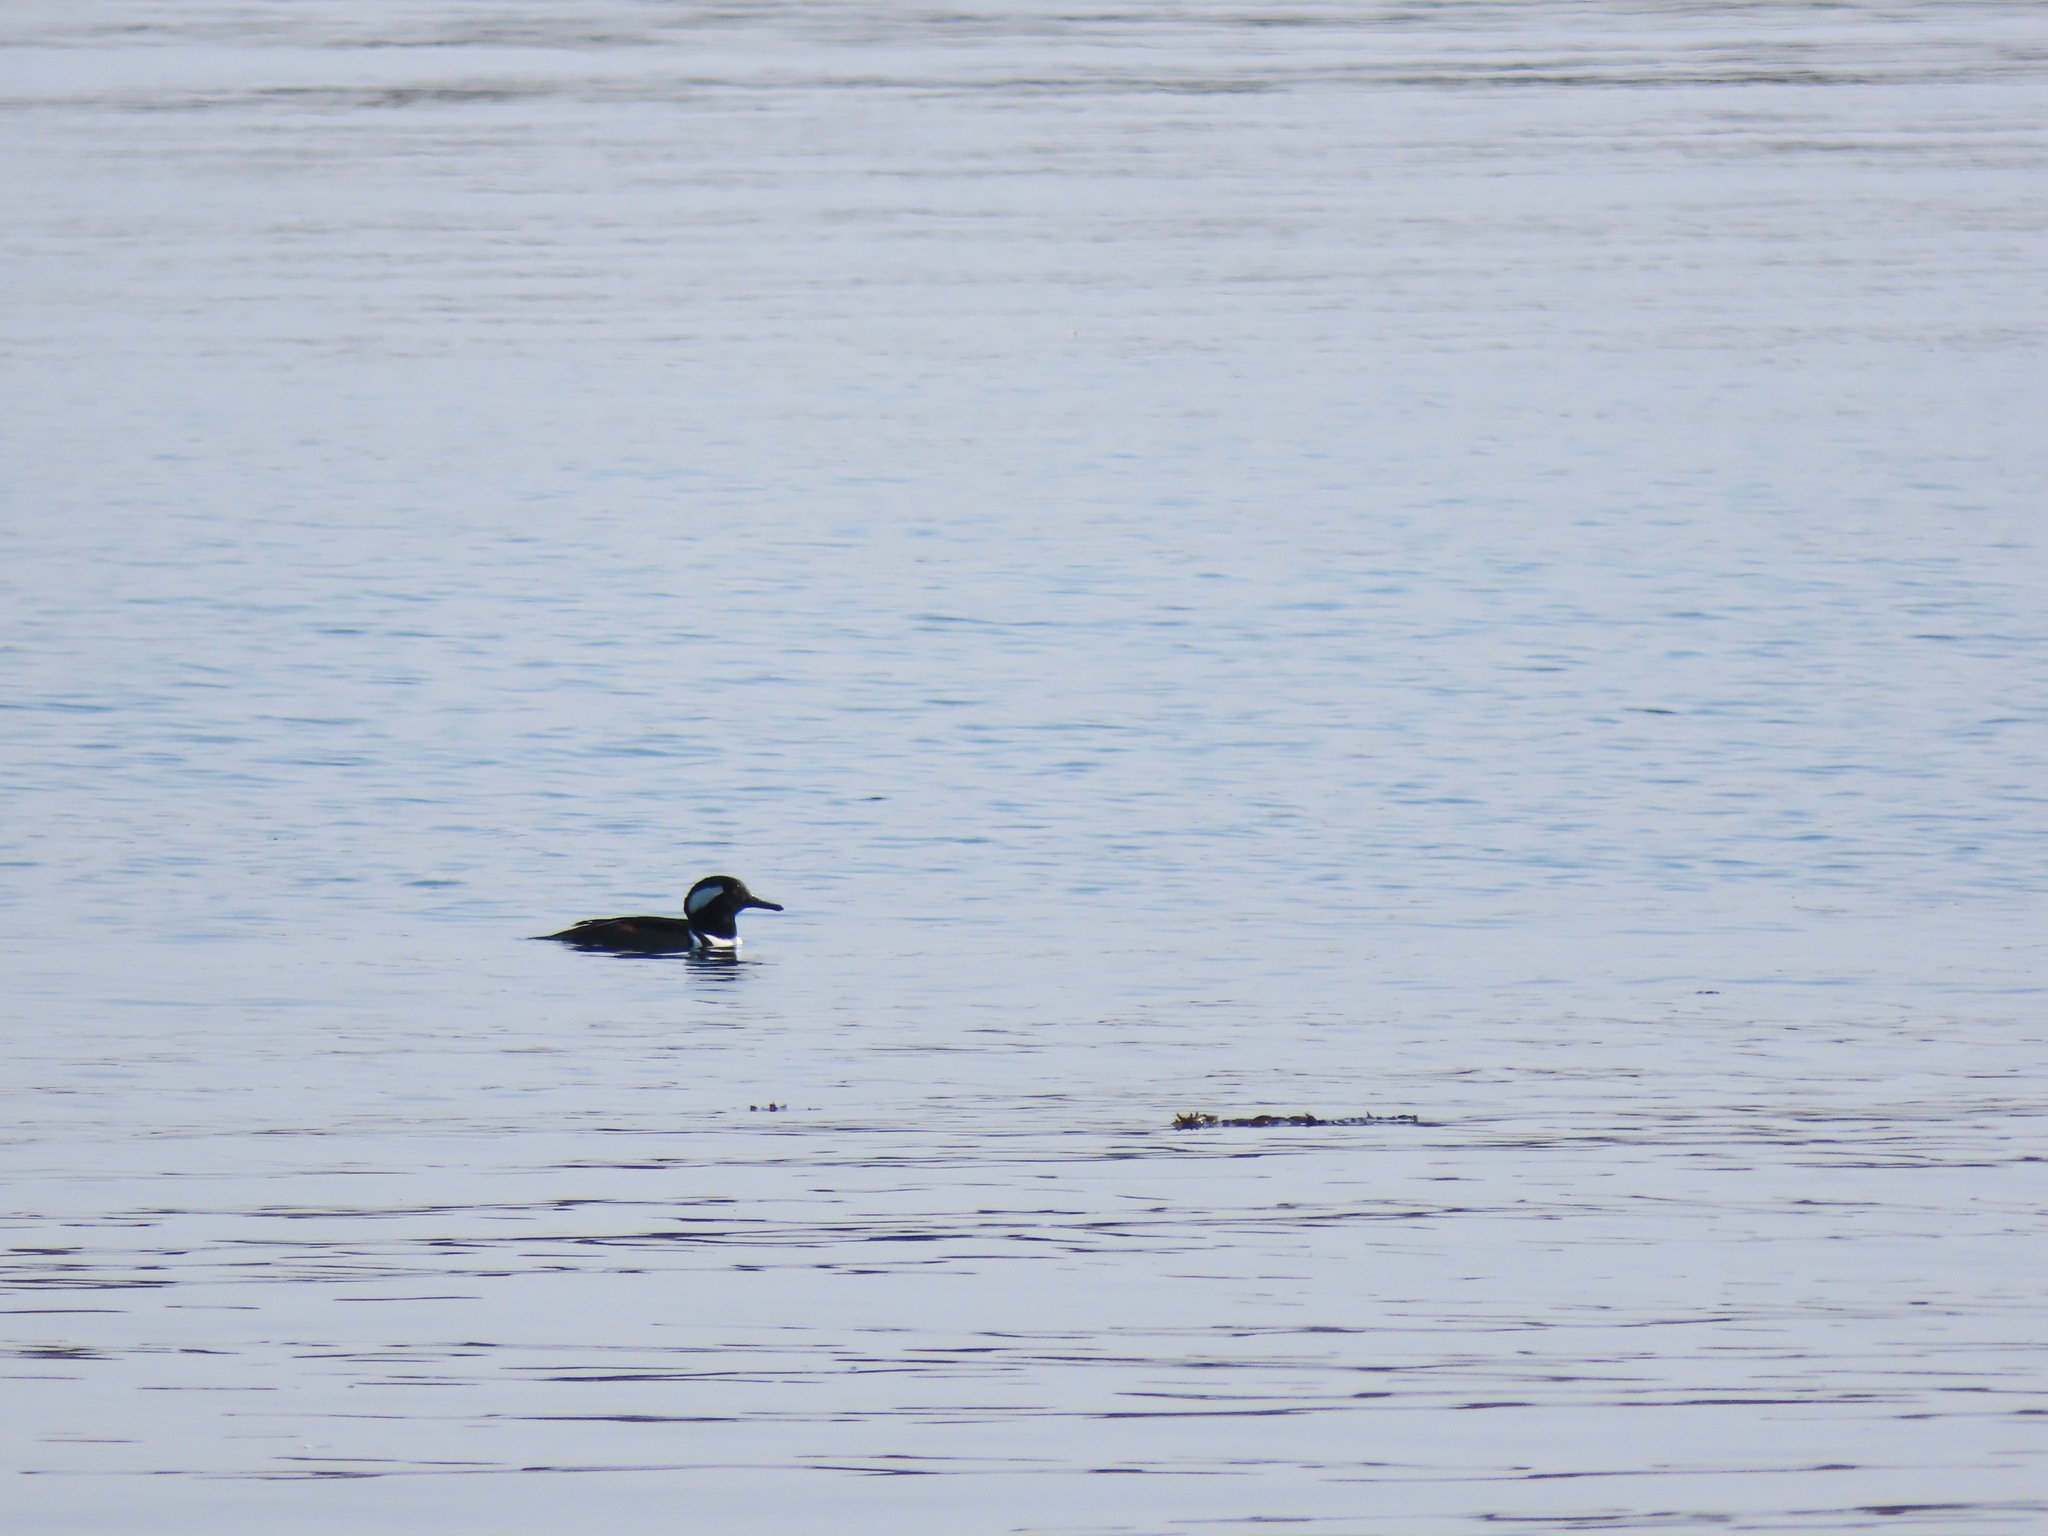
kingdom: Animalia
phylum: Chordata
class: Aves
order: Anseriformes
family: Anatidae
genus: Lophodytes
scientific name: Lophodytes cucullatus
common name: Hooded merganser
